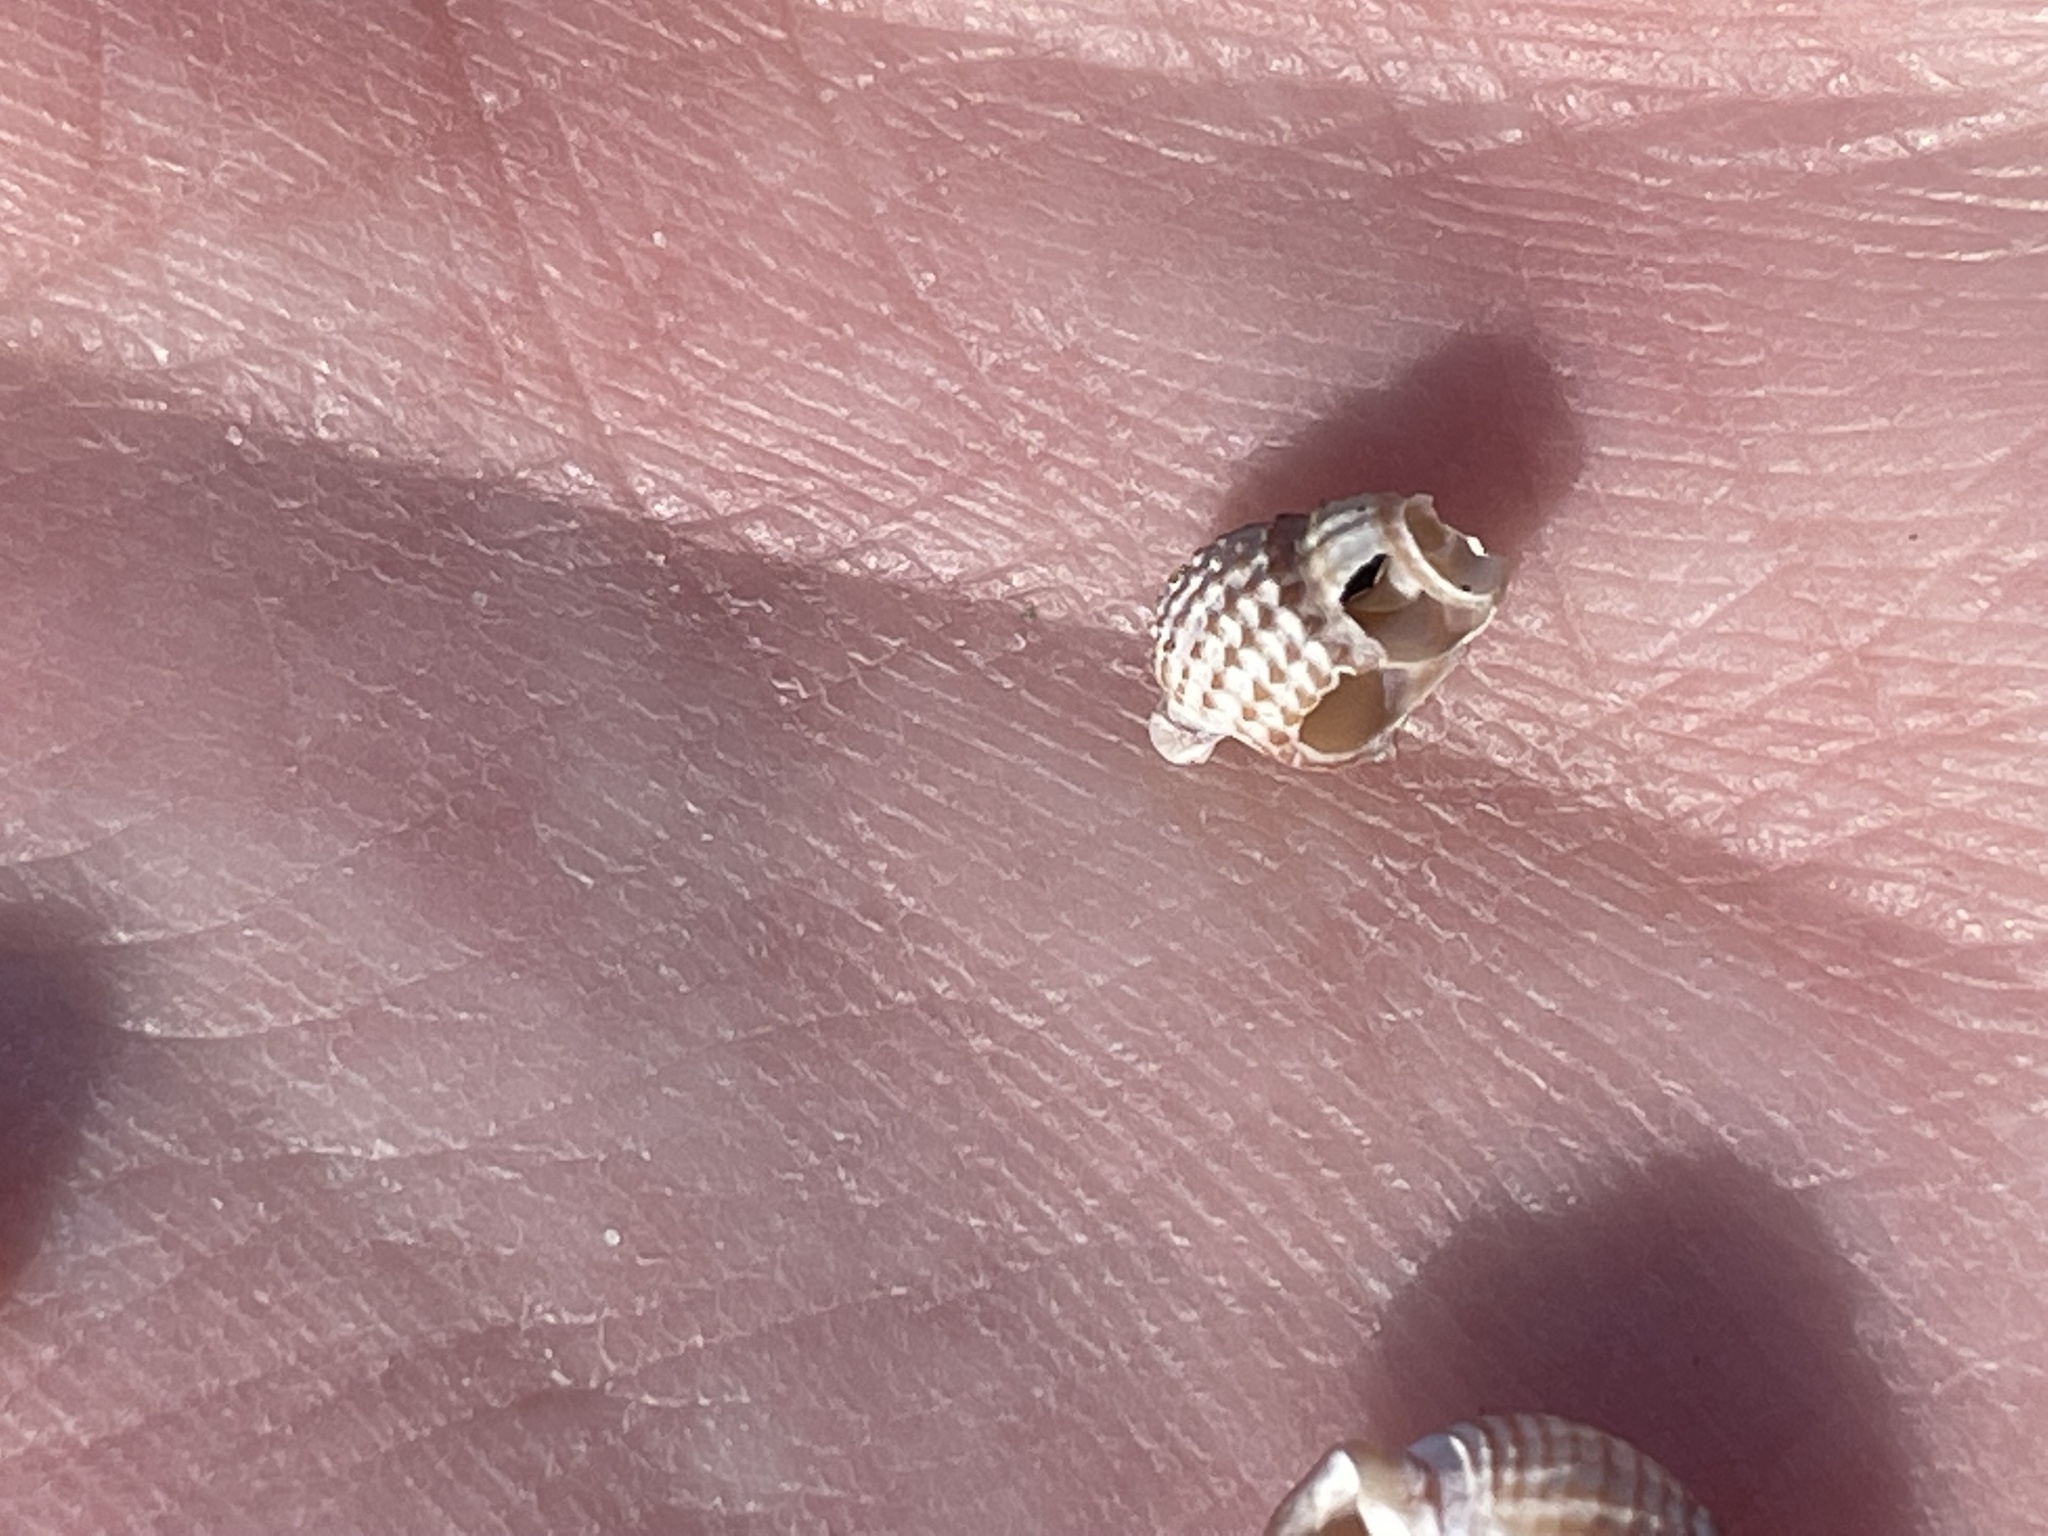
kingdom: Animalia
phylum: Mollusca
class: Gastropoda
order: Neogastropoda
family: Nassariidae
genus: Ilyanassa
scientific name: Ilyanassa trivittata
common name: Three-line mudsnail
